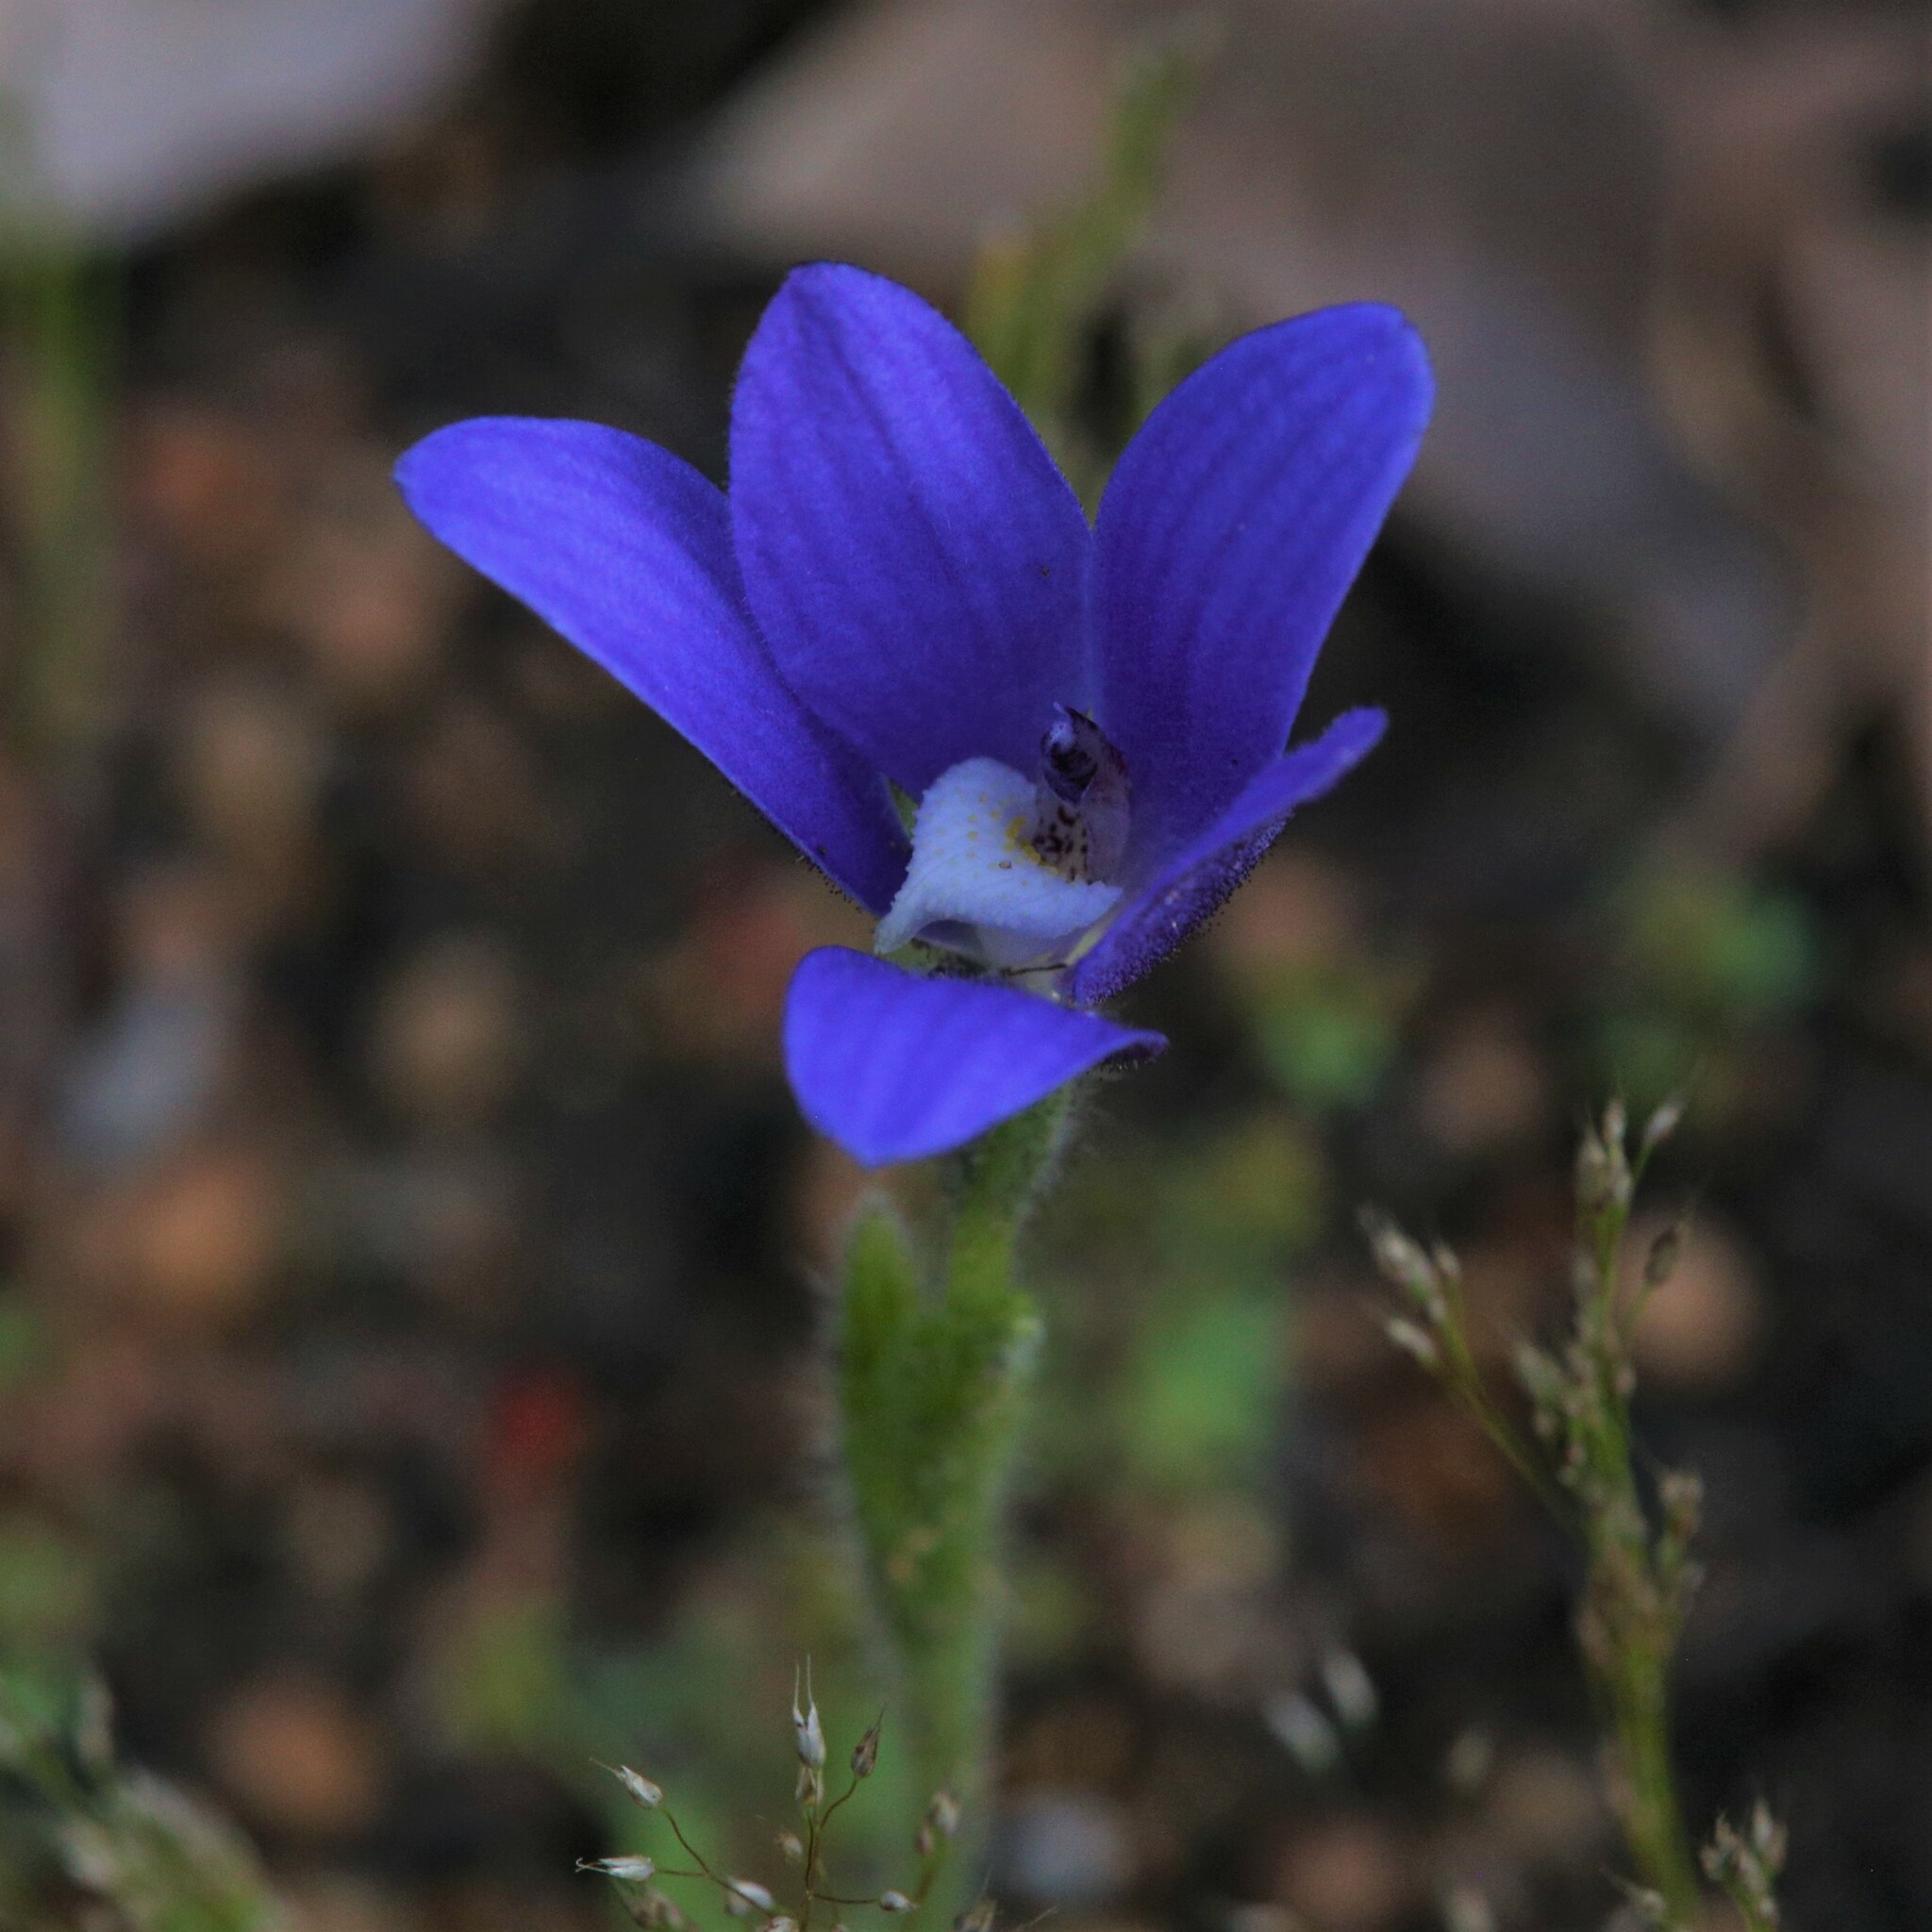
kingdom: Plantae
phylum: Tracheophyta
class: Liliopsida
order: Asparagales
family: Orchidaceae
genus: Caladenia
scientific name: Caladenia gemmata
